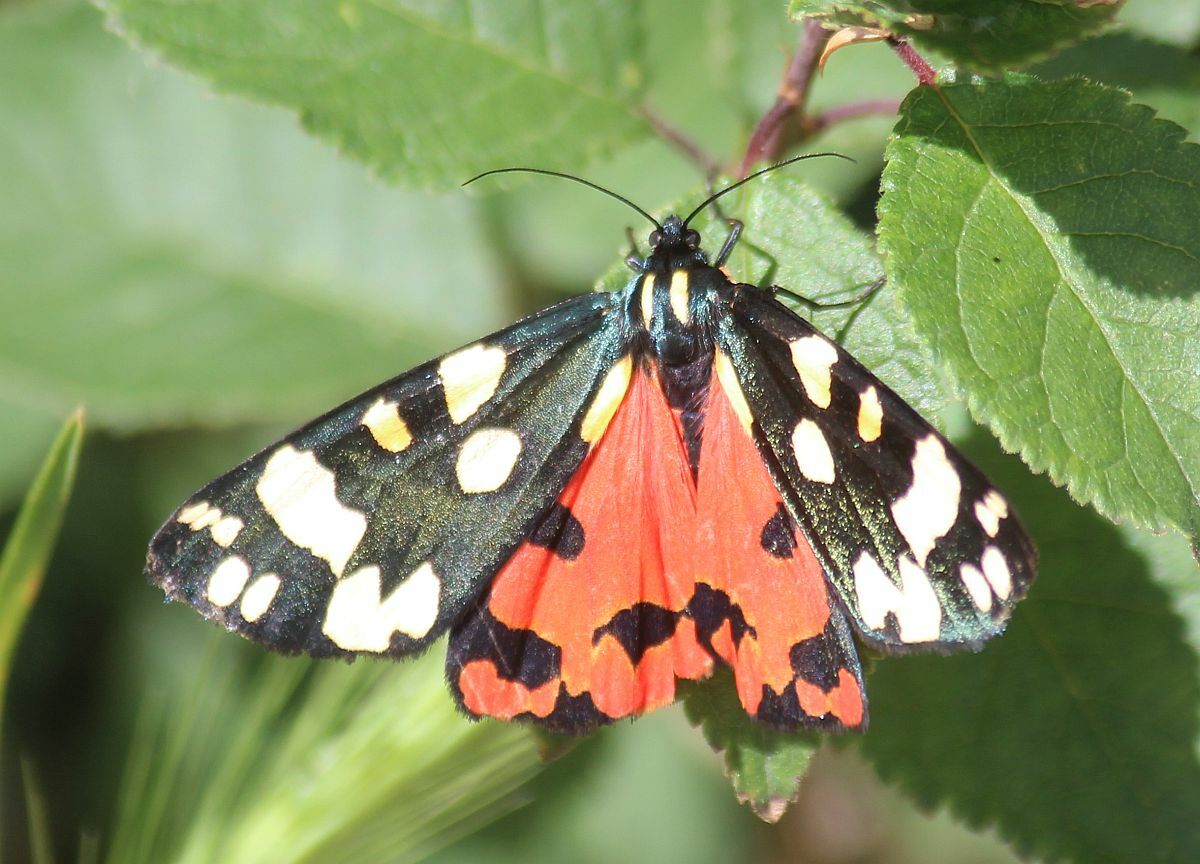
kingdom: Animalia
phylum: Arthropoda
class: Insecta
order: Lepidoptera
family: Erebidae
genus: Callimorpha
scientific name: Callimorpha dominula
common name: Scarlet tiger
